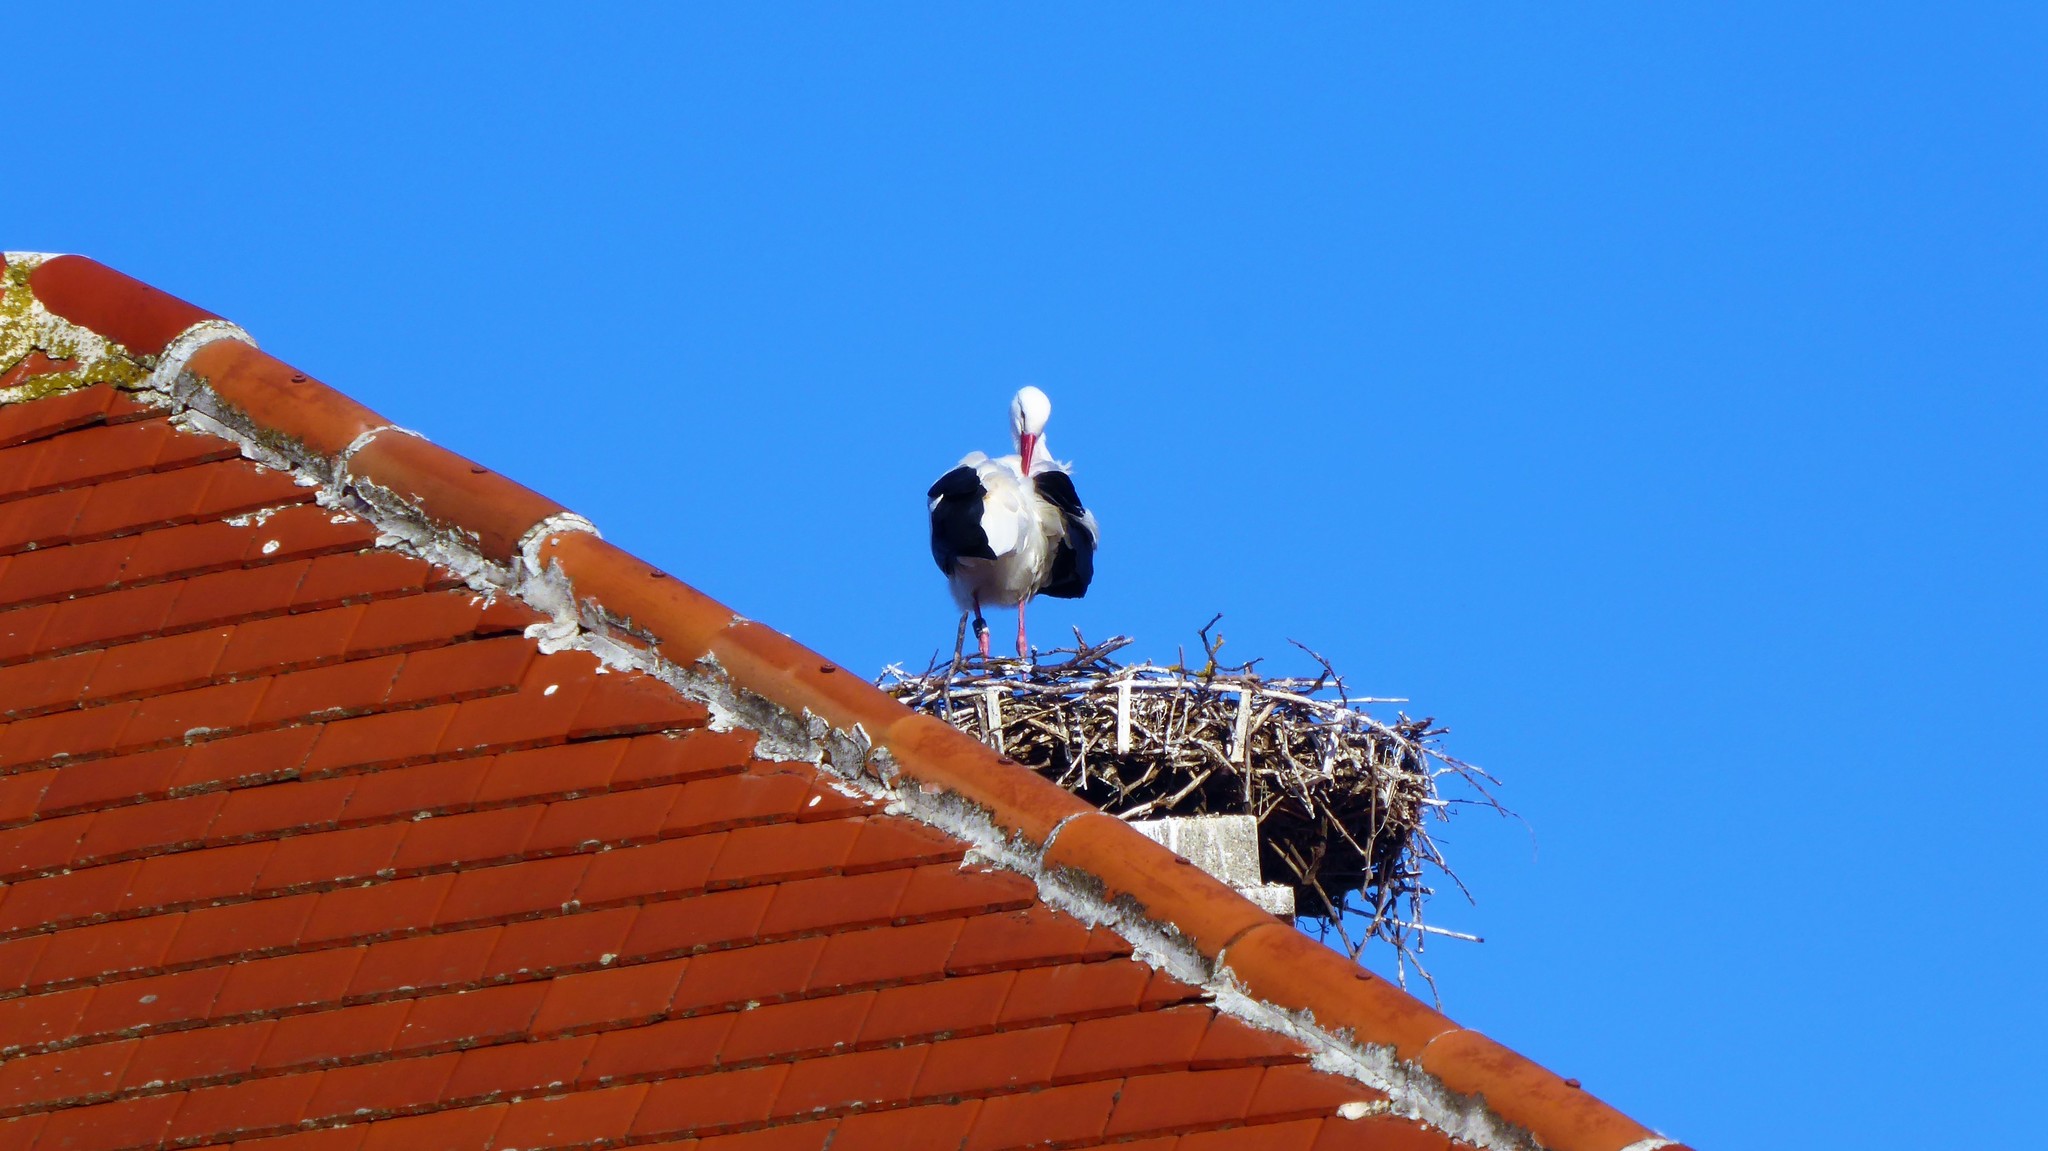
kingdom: Animalia
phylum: Chordata
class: Aves
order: Ciconiiformes
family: Ciconiidae
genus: Ciconia
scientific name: Ciconia ciconia
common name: White stork
